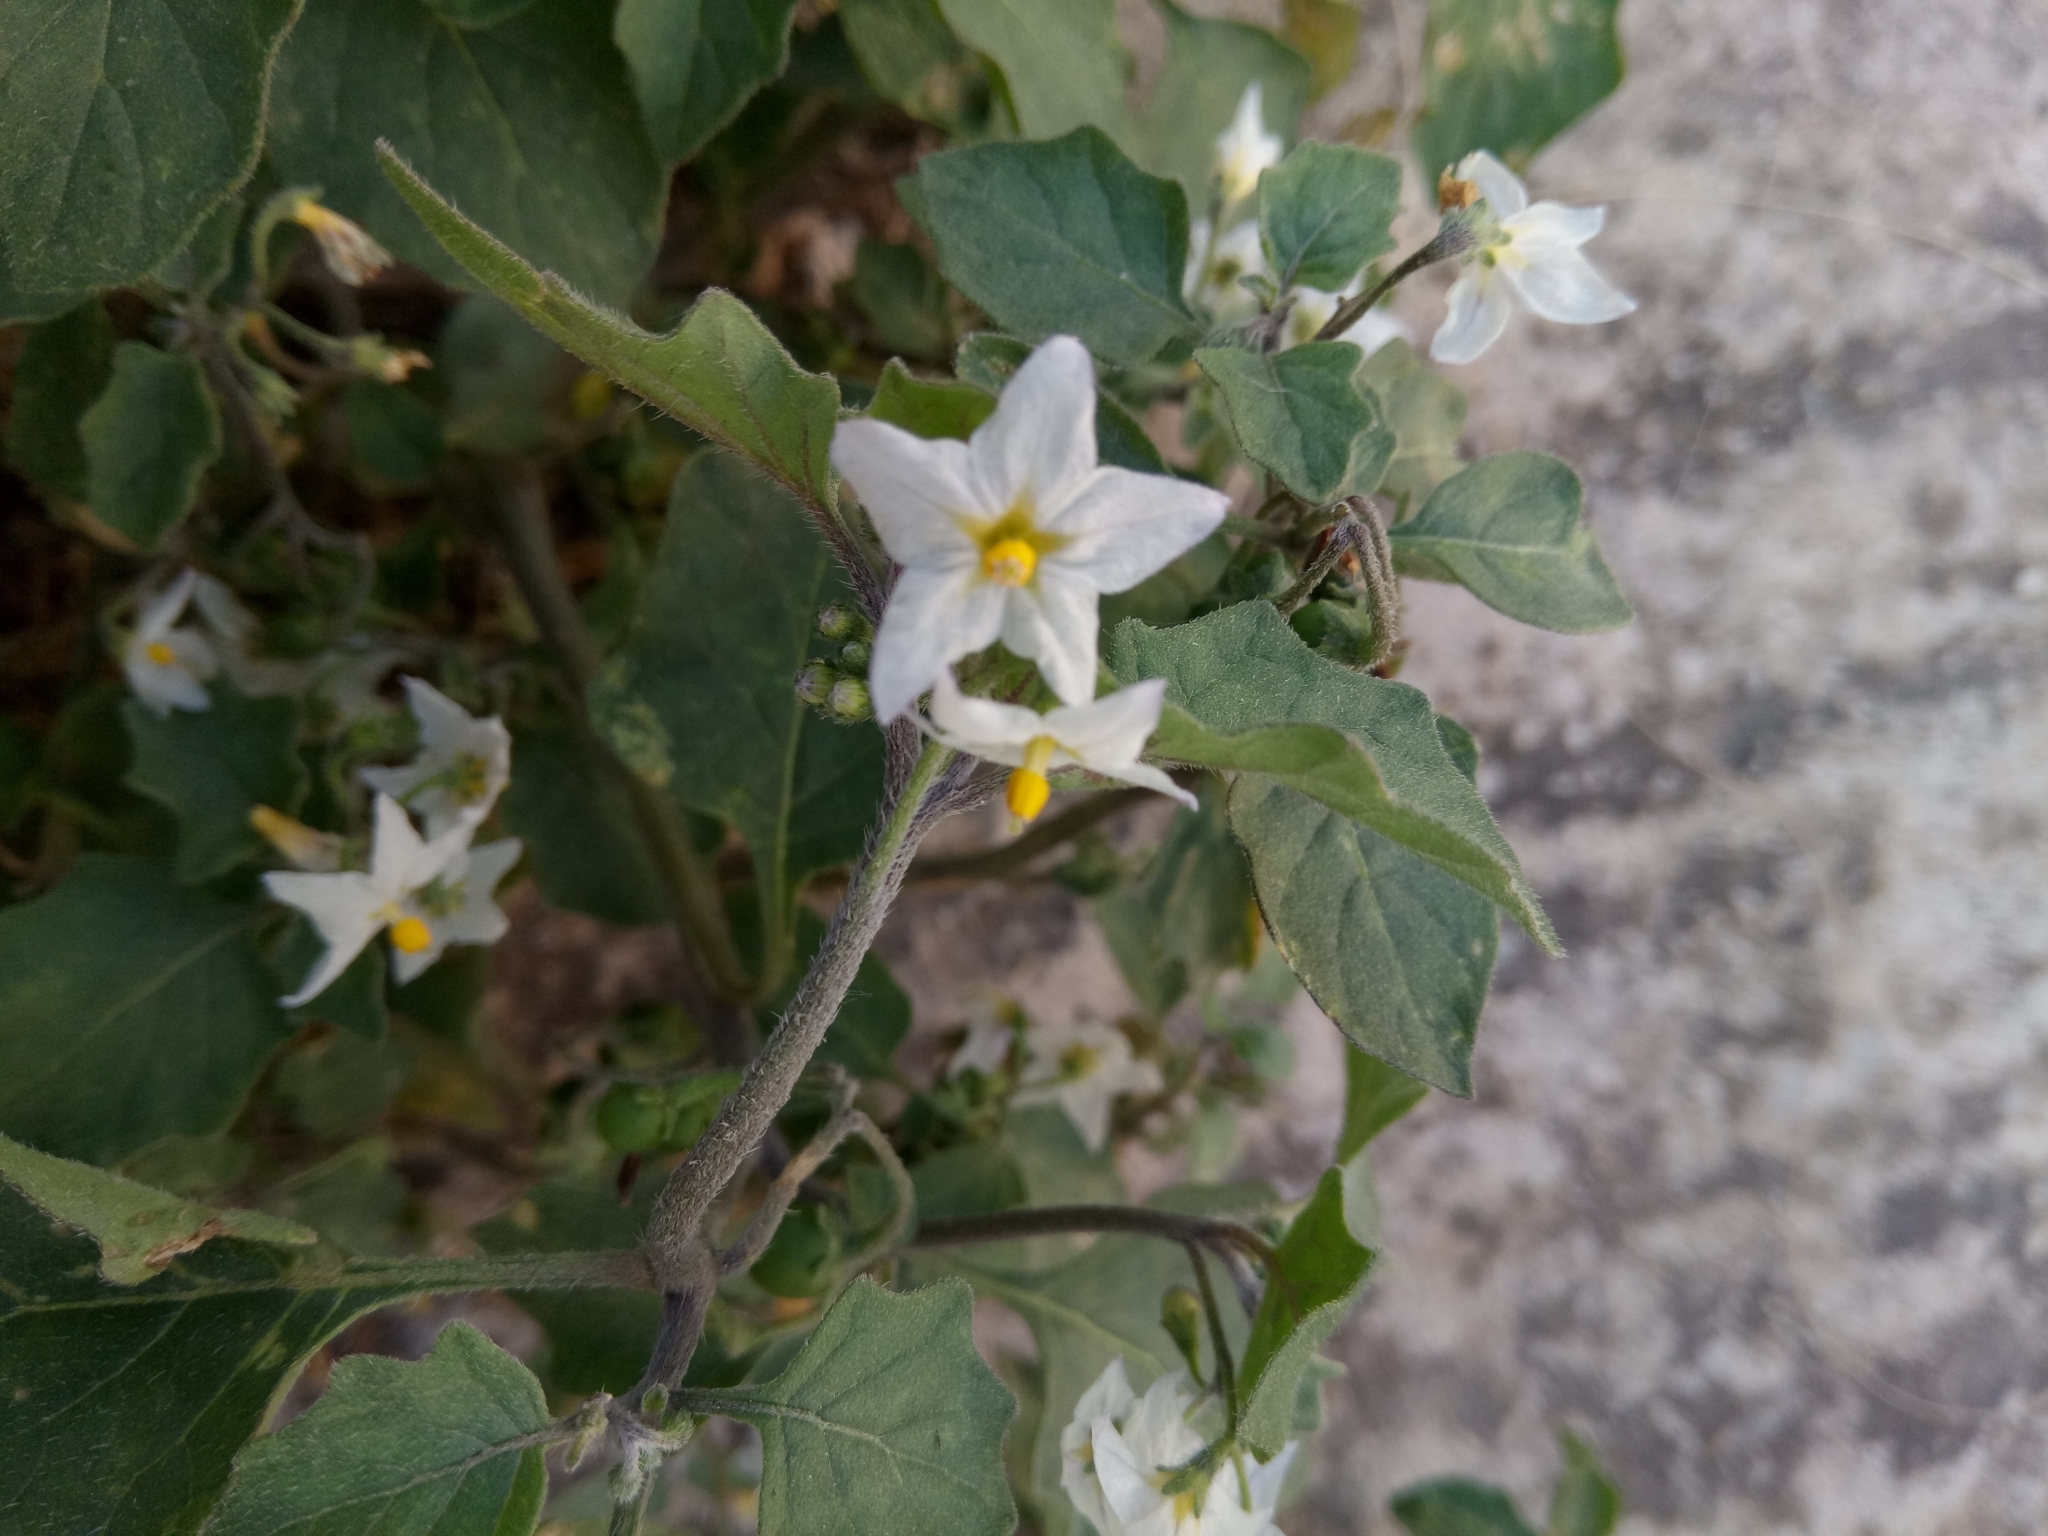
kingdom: Plantae
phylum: Tracheophyta
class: Magnoliopsida
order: Solanales
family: Solanaceae
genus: Solanum
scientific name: Solanum villosum
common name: Red nightshade
